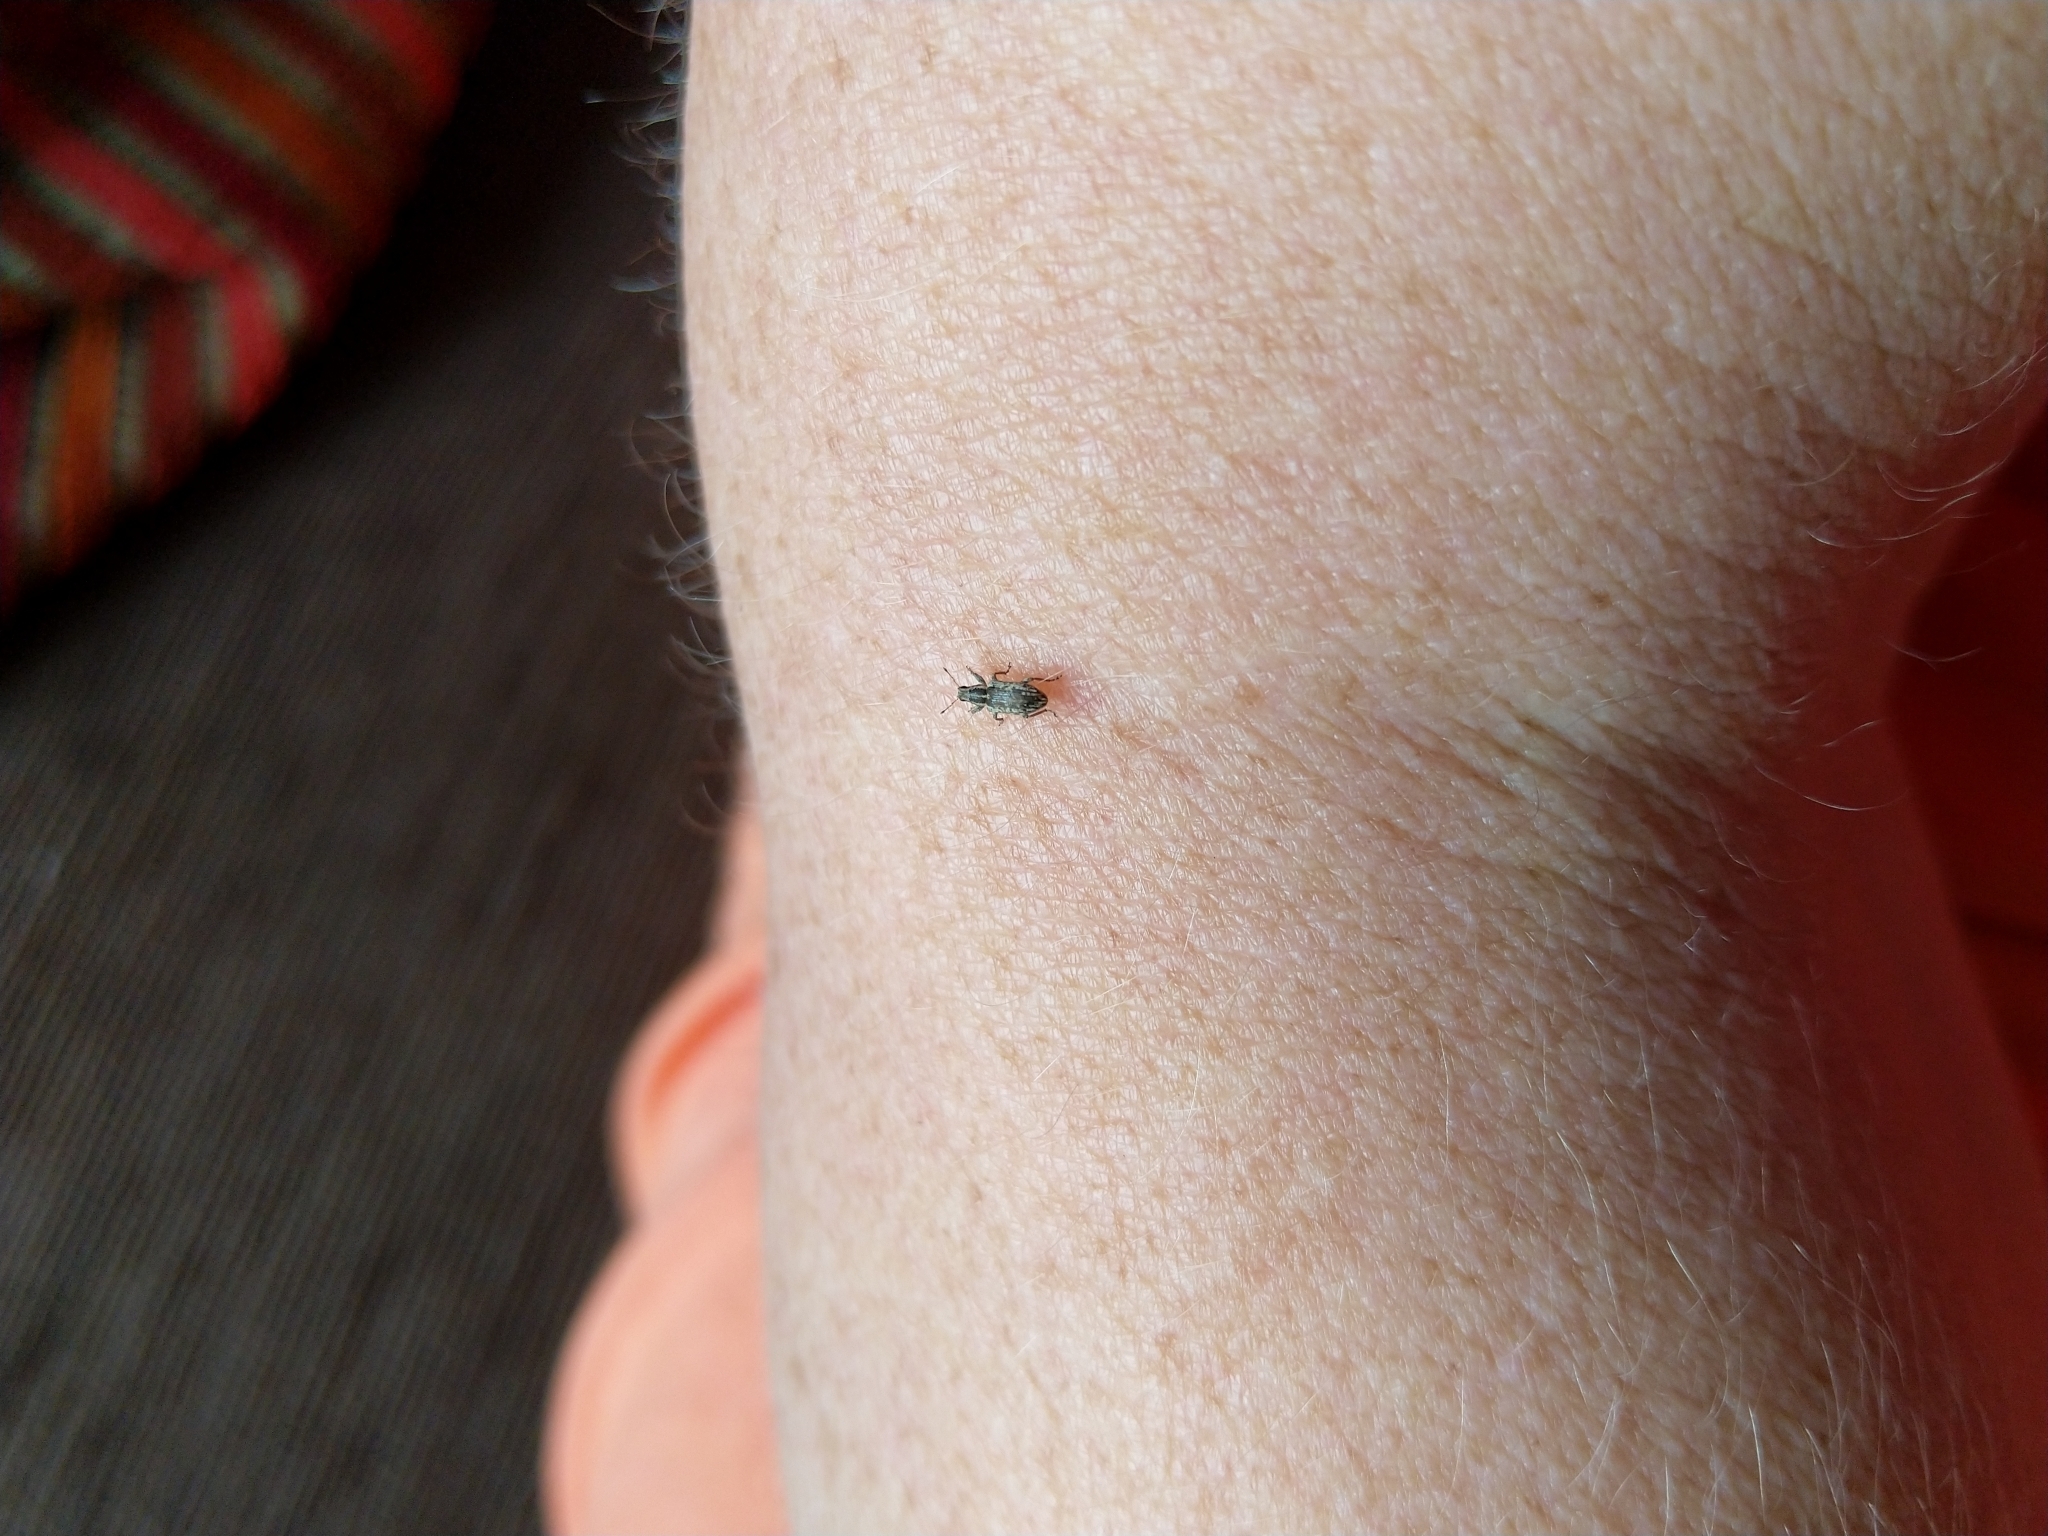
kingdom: Animalia
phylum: Arthropoda
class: Insecta
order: Coleoptera
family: Curculionidae
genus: Sitona
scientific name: Sitona discoideus
